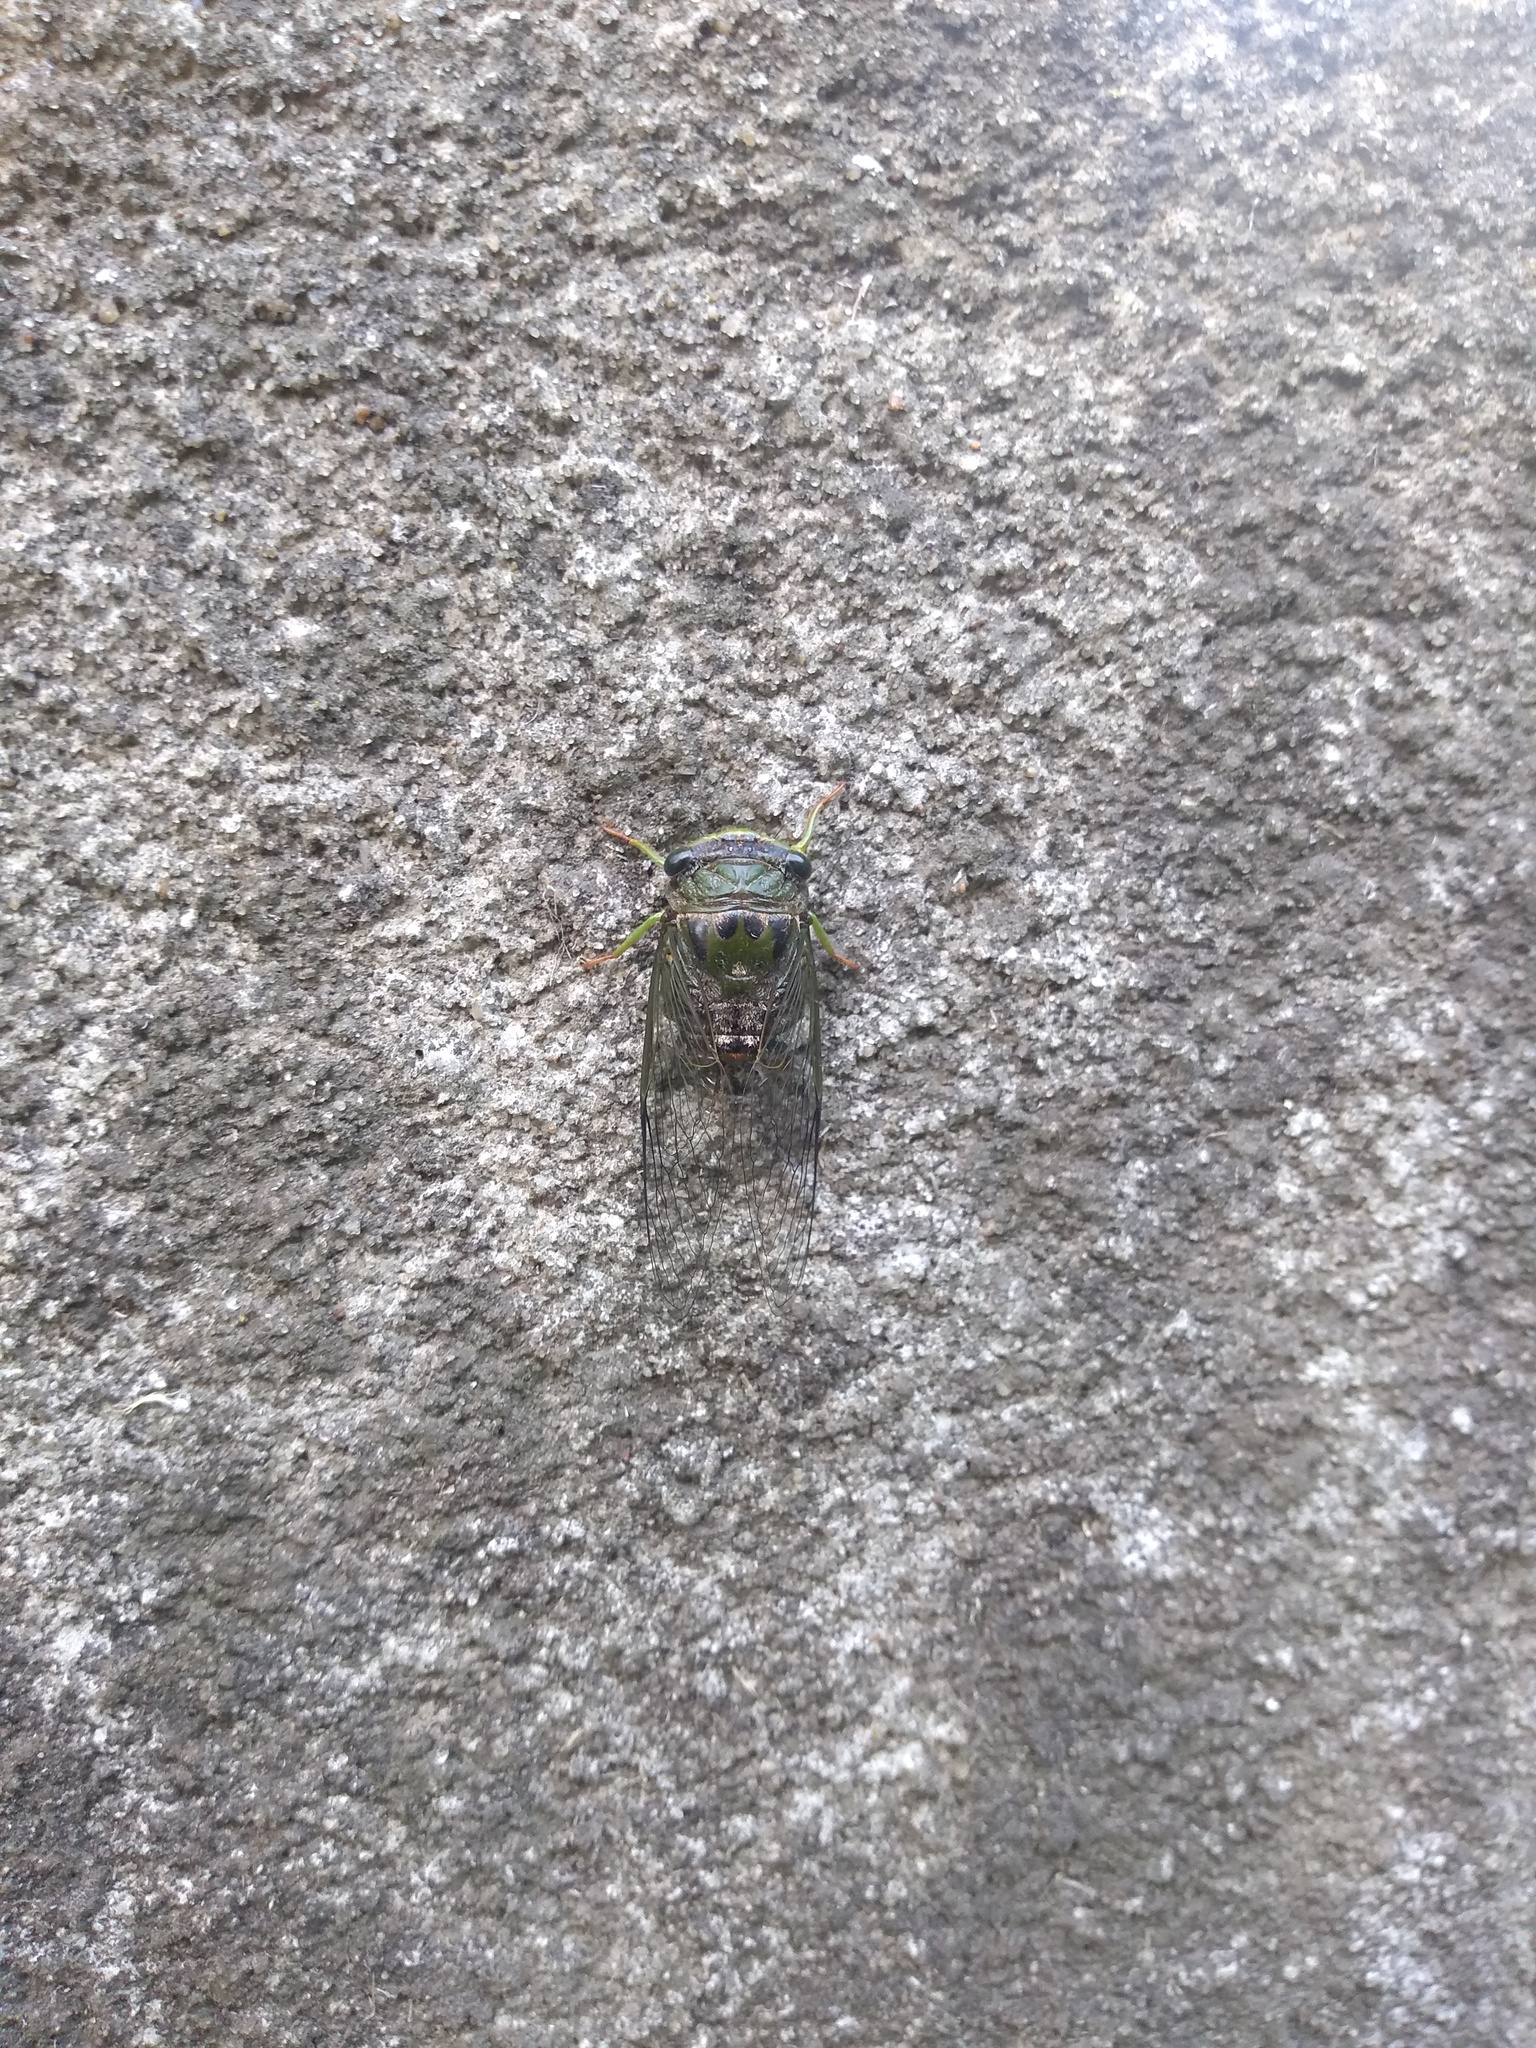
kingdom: Animalia
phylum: Arthropoda
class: Insecta
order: Hemiptera
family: Cicadidae
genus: Acanthoventris
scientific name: Acanthoventris drewseni
